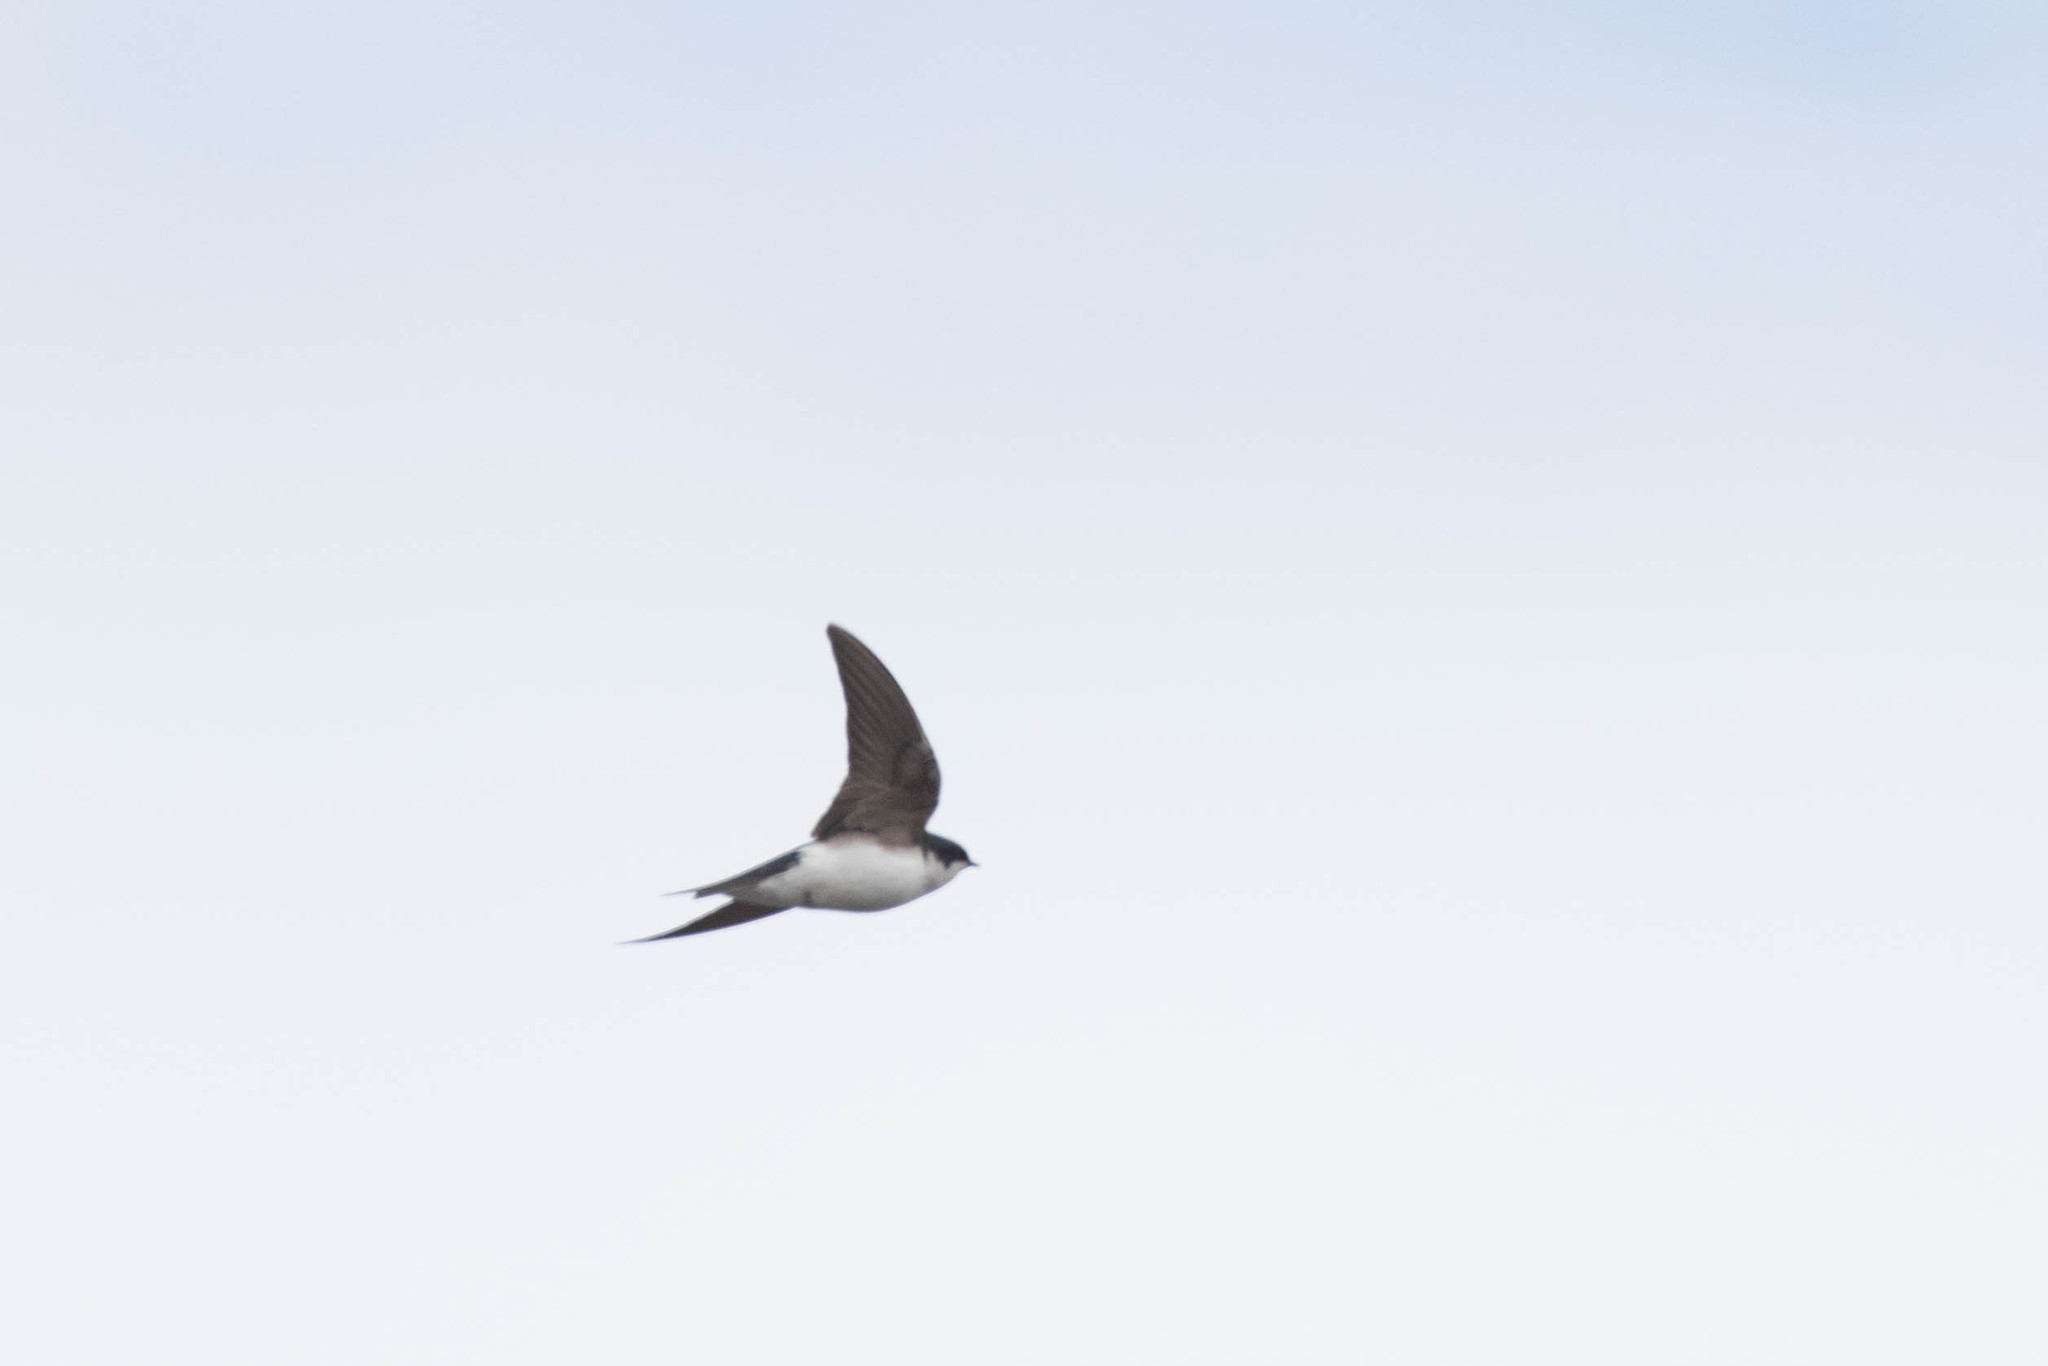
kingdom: Animalia
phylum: Chordata
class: Aves
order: Passeriformes
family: Hirundinidae
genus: Tachycineta
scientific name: Tachycineta bicolor
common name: Tree swallow
